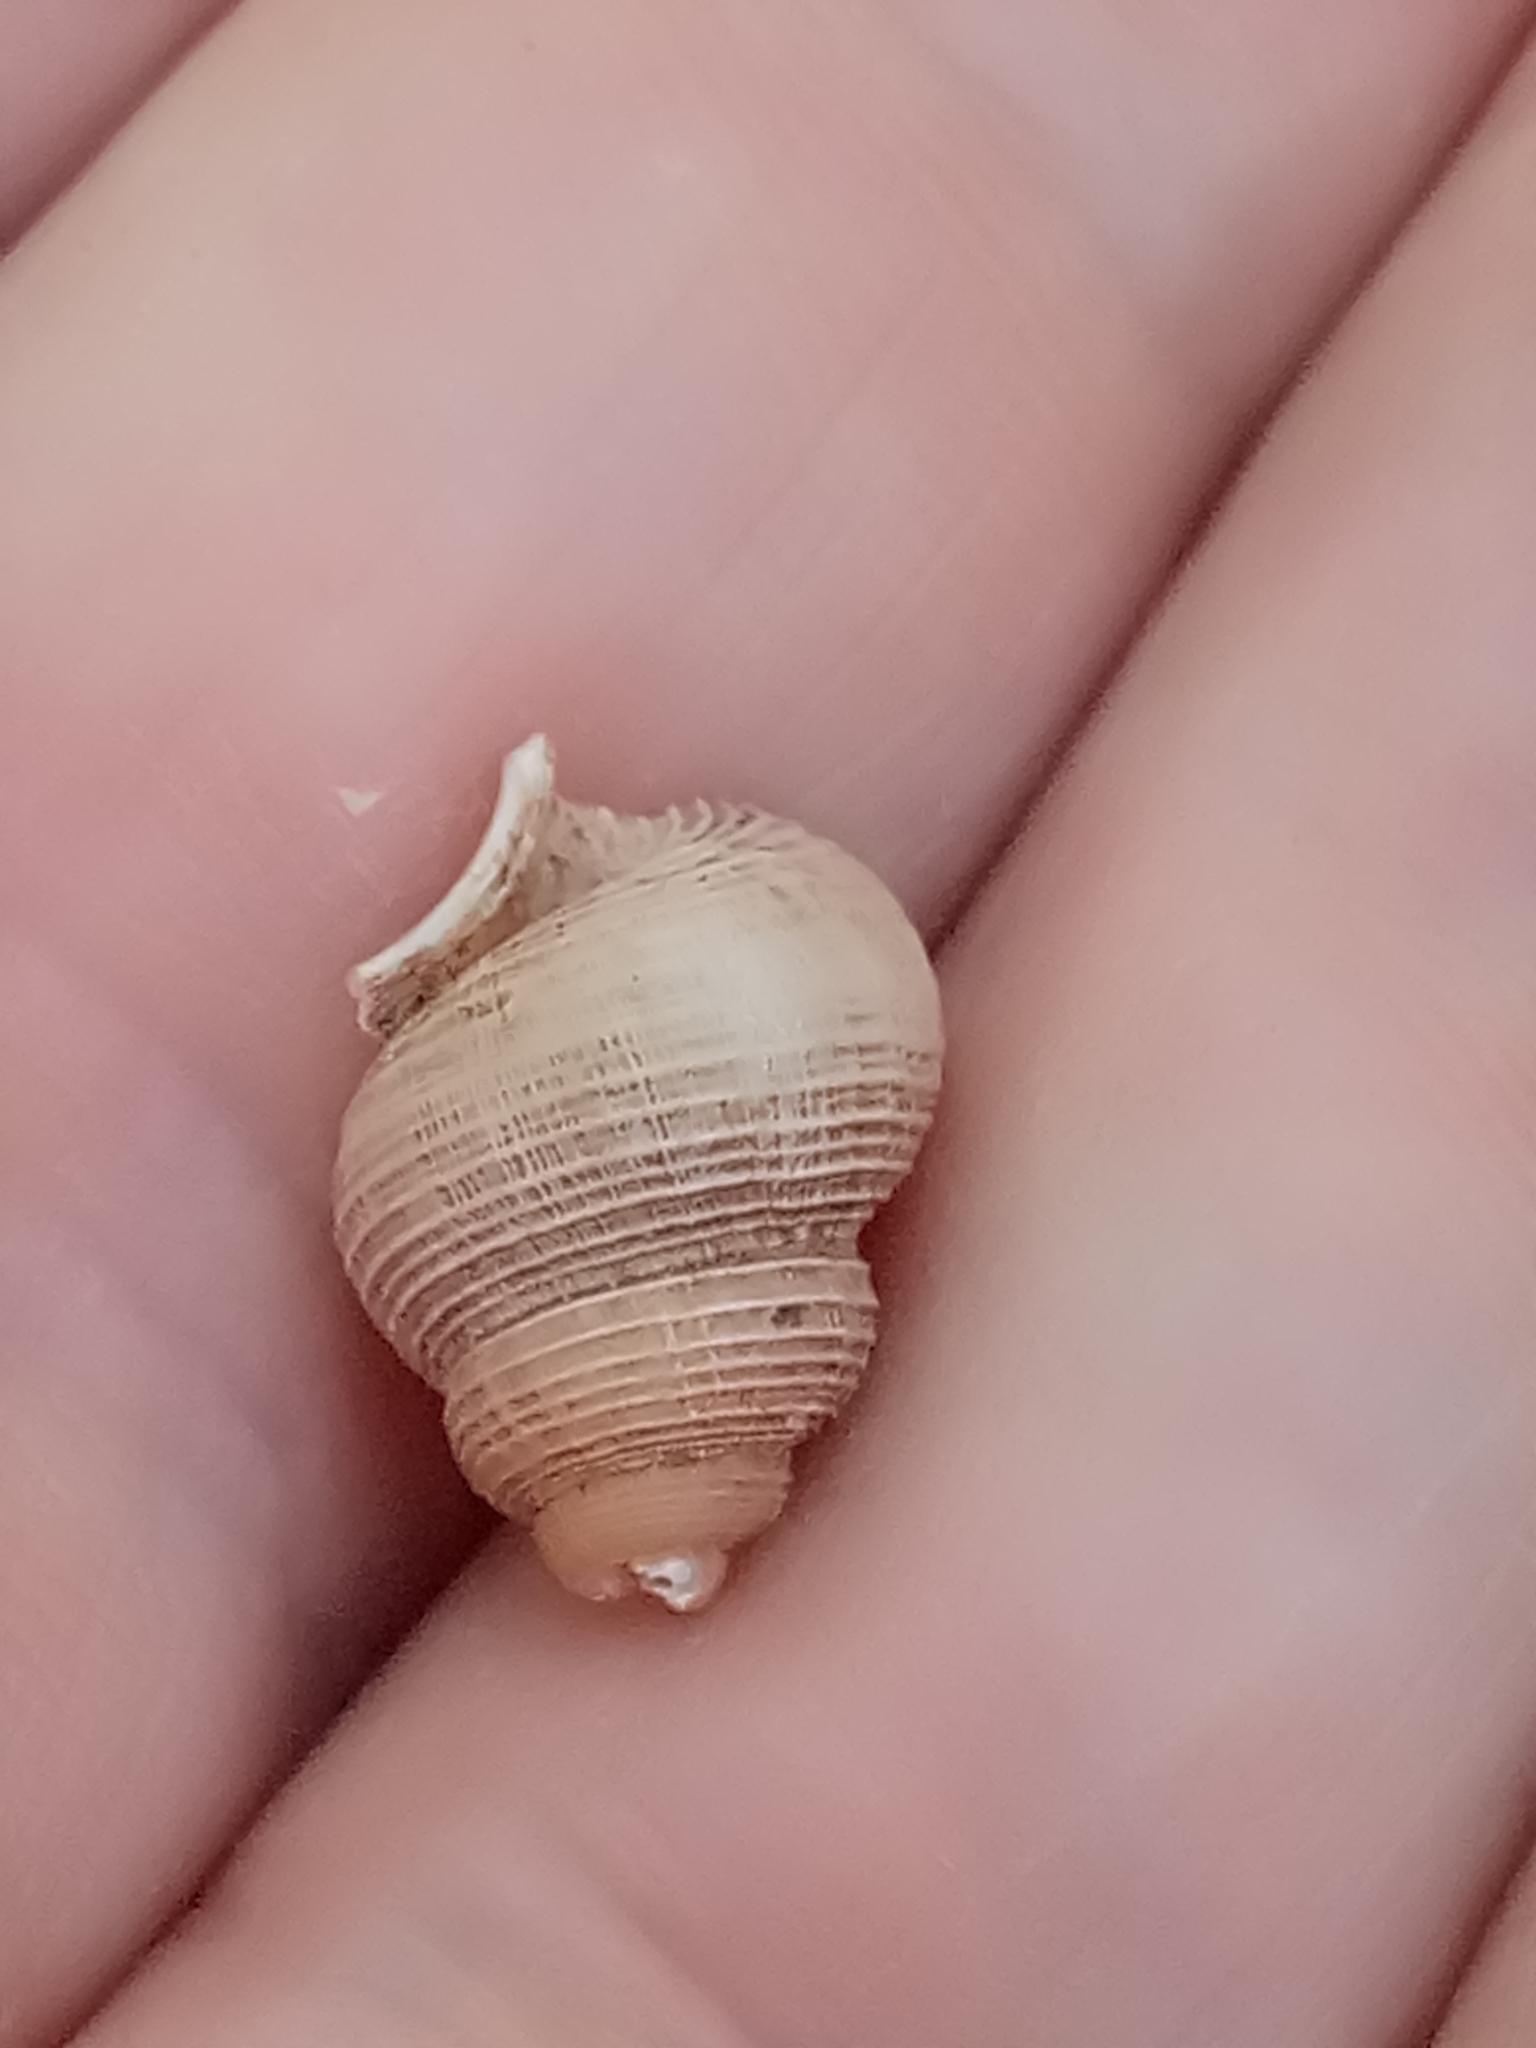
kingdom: Animalia
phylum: Mollusca
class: Gastropoda
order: Littorinimorpha
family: Pomatiidae
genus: Tudorella
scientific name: Tudorella sulcata
